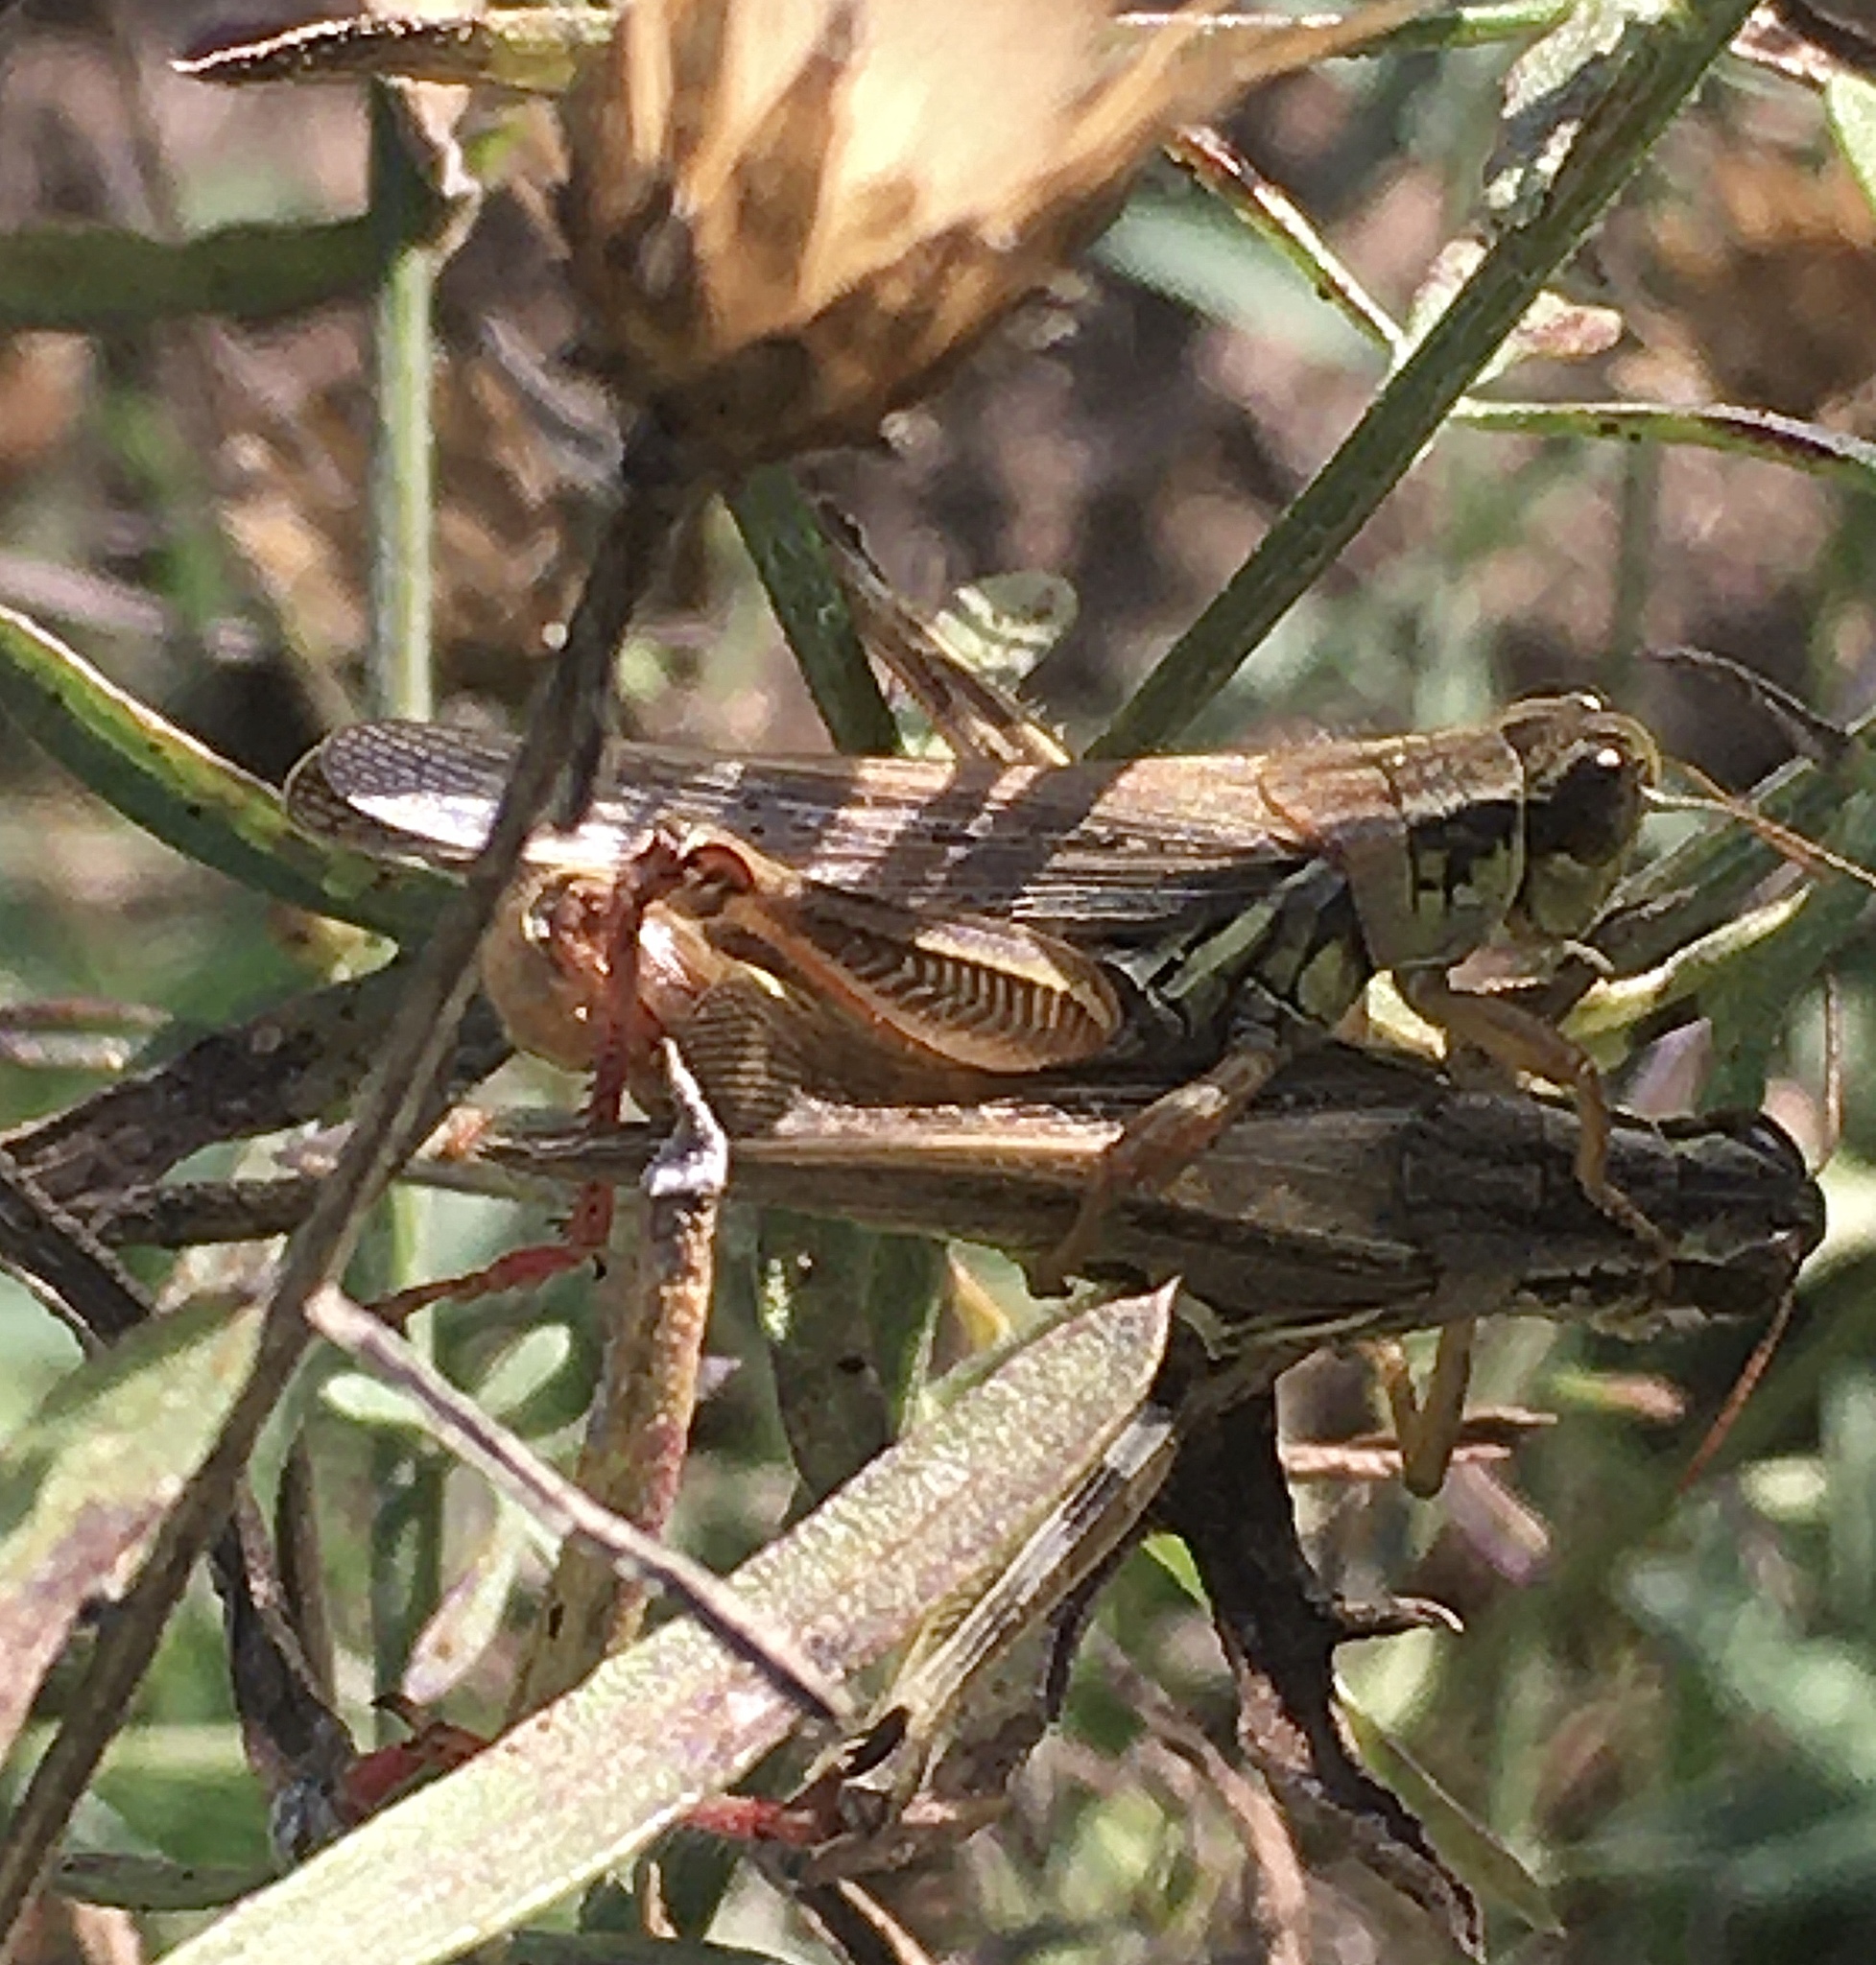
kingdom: Animalia
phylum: Arthropoda
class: Insecta
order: Orthoptera
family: Acrididae
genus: Melanoplus
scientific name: Melanoplus femurrubrum
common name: Red-legged grasshopper
